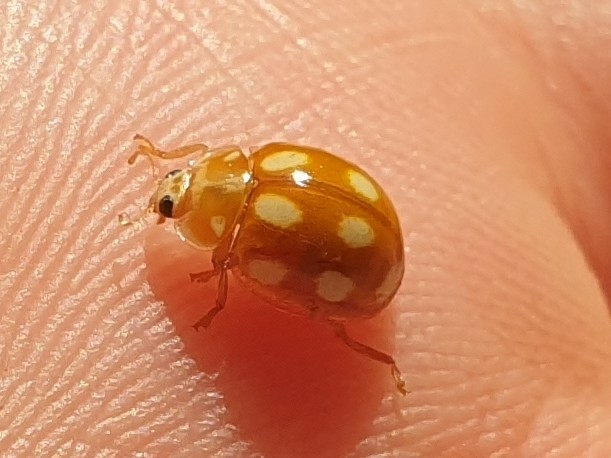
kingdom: Animalia
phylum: Arthropoda
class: Insecta
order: Coleoptera
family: Coccinellidae
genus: Calvia
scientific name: Calvia decemguttata
